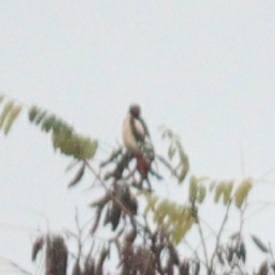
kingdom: Animalia
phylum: Chordata
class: Aves
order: Piciformes
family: Picidae
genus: Dendrocopos
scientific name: Dendrocopos major
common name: Great spotted woodpecker
